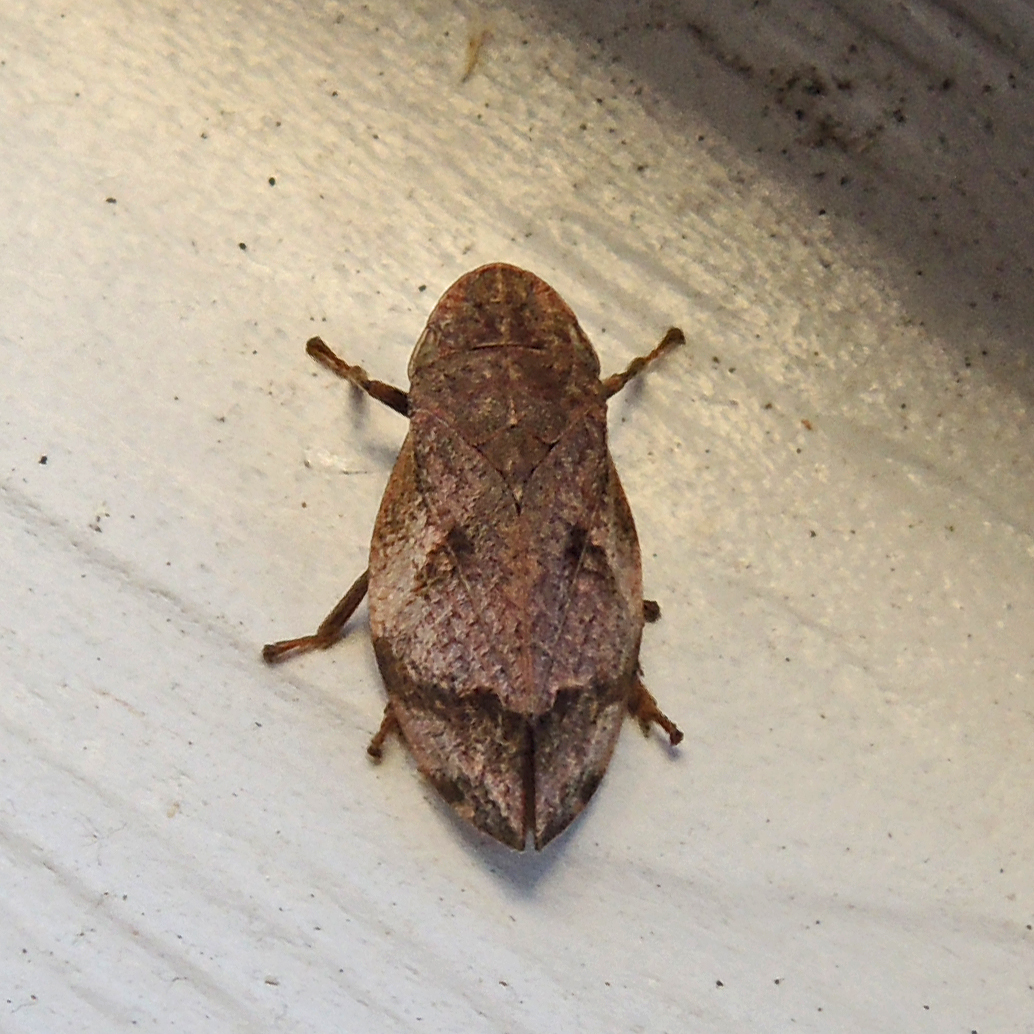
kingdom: Animalia
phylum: Arthropoda
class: Insecta
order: Hemiptera
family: Aphrophoridae
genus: Lepyronia
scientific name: Lepyronia quadrangularis
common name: Diamond-backed spittlebug
